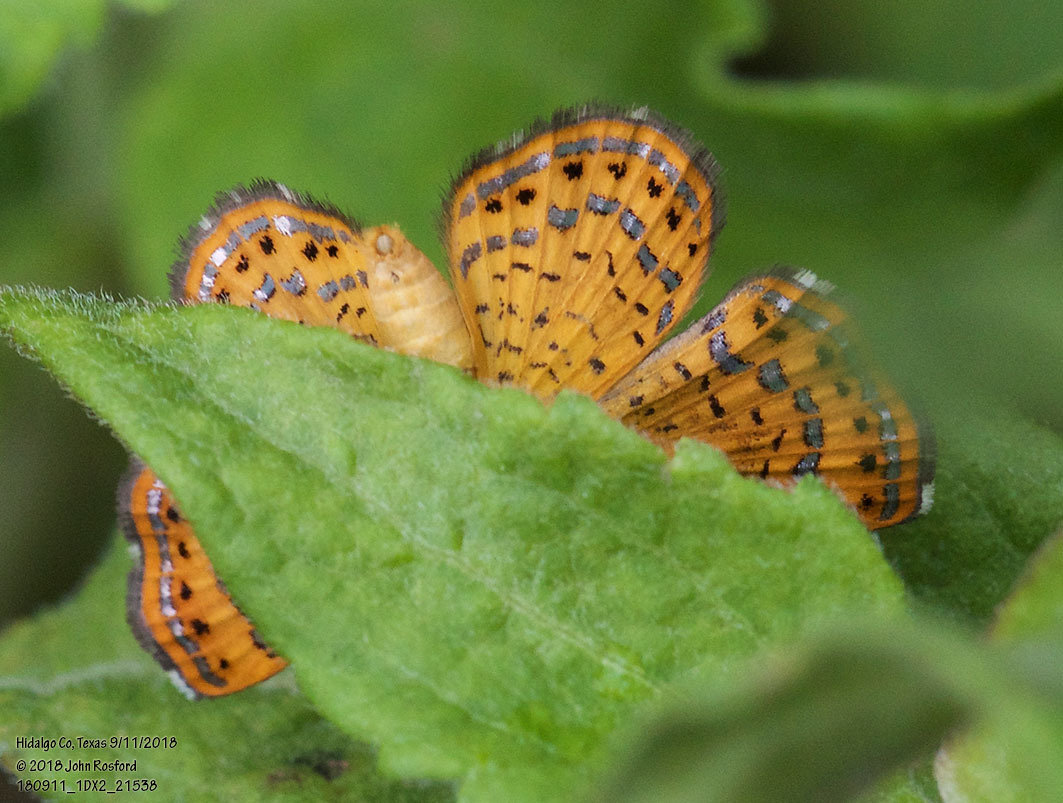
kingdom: Animalia
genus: Calephelis
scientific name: Calephelis nemesis
